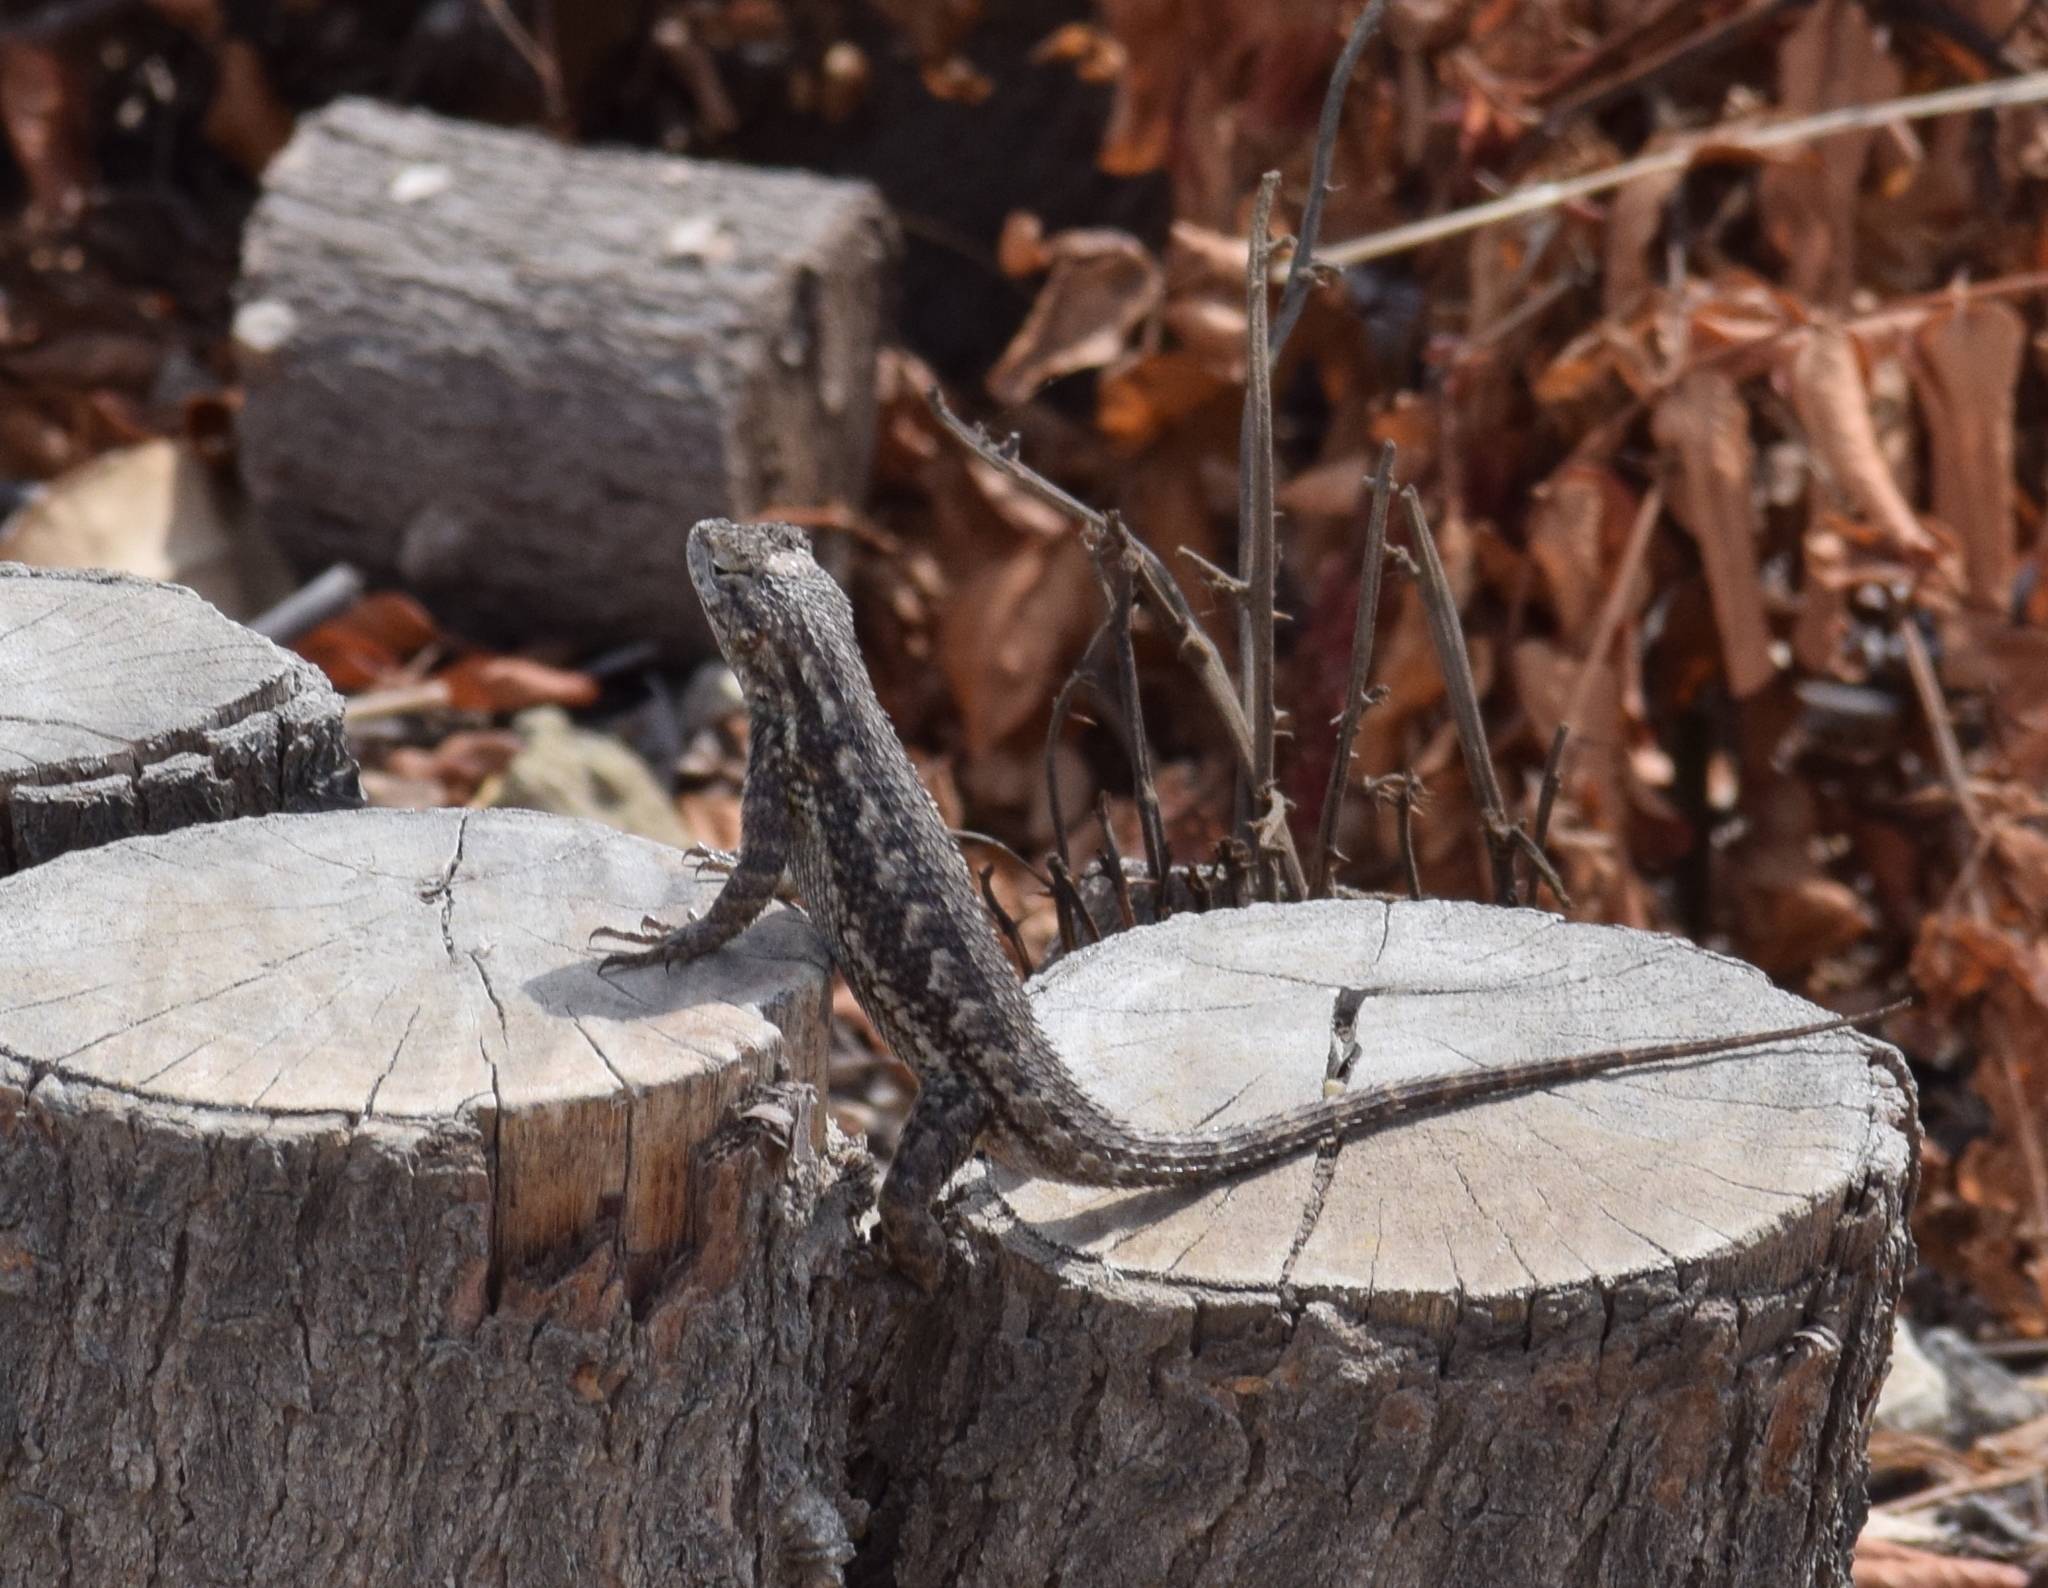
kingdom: Animalia
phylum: Chordata
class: Squamata
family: Phrynosomatidae
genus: Sceloporus
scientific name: Sceloporus occidentalis
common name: Western fence lizard
